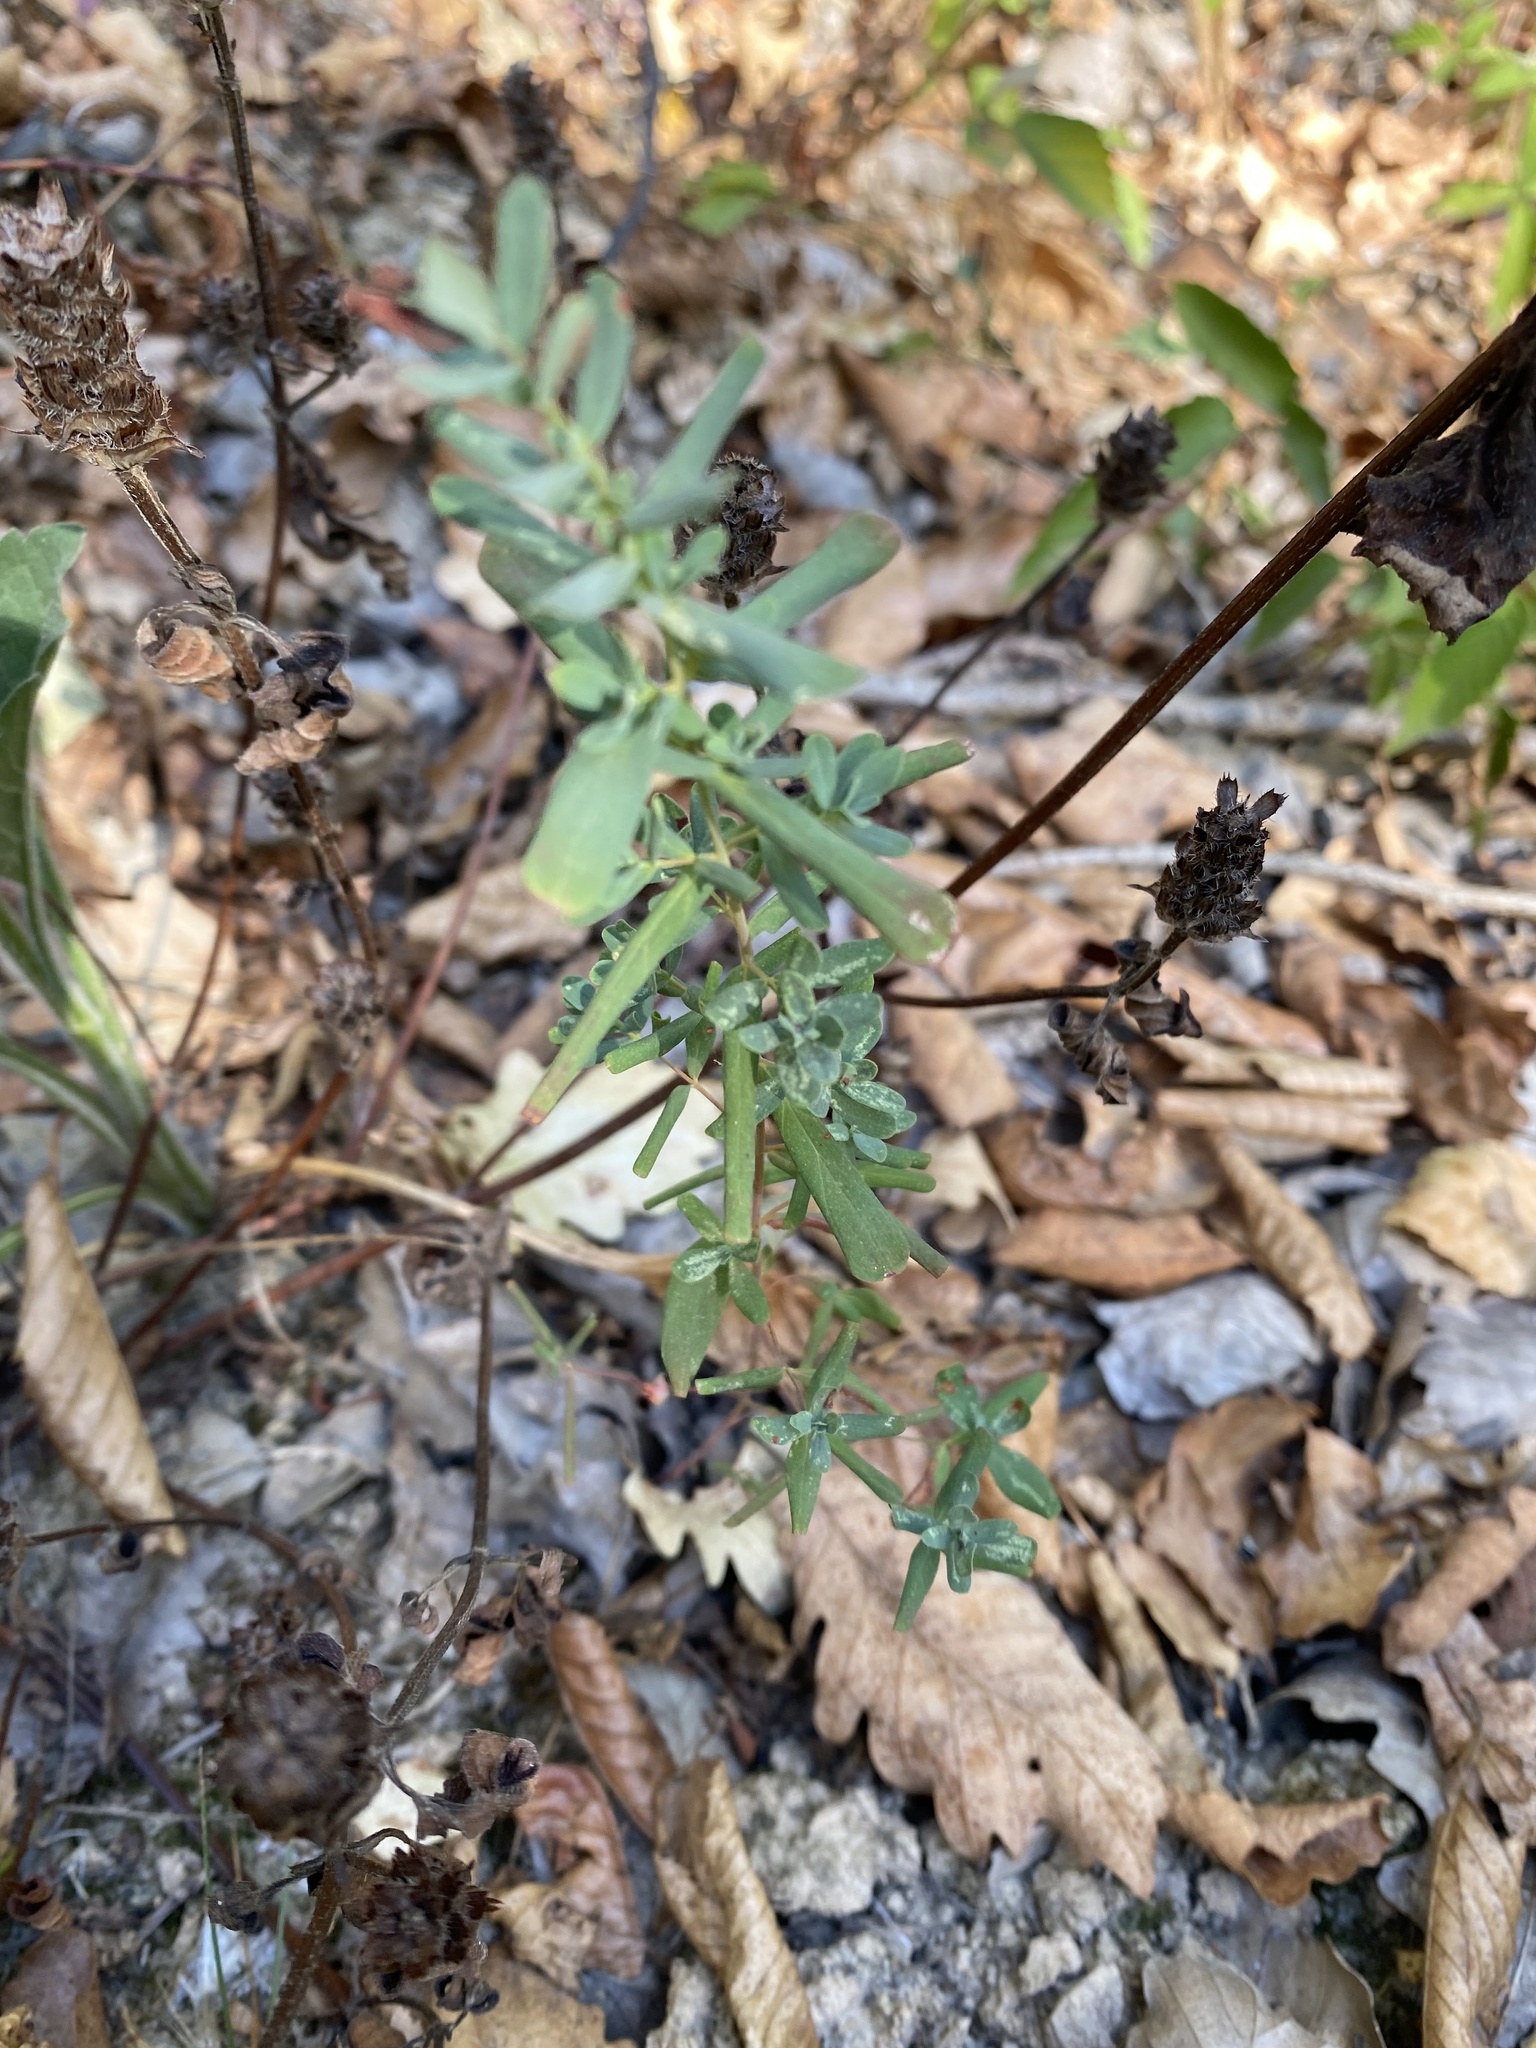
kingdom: Plantae
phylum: Tracheophyta
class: Magnoliopsida
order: Malpighiales
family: Hypericaceae
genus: Hypericum
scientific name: Hypericum perforatum
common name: Common st. johnswort
